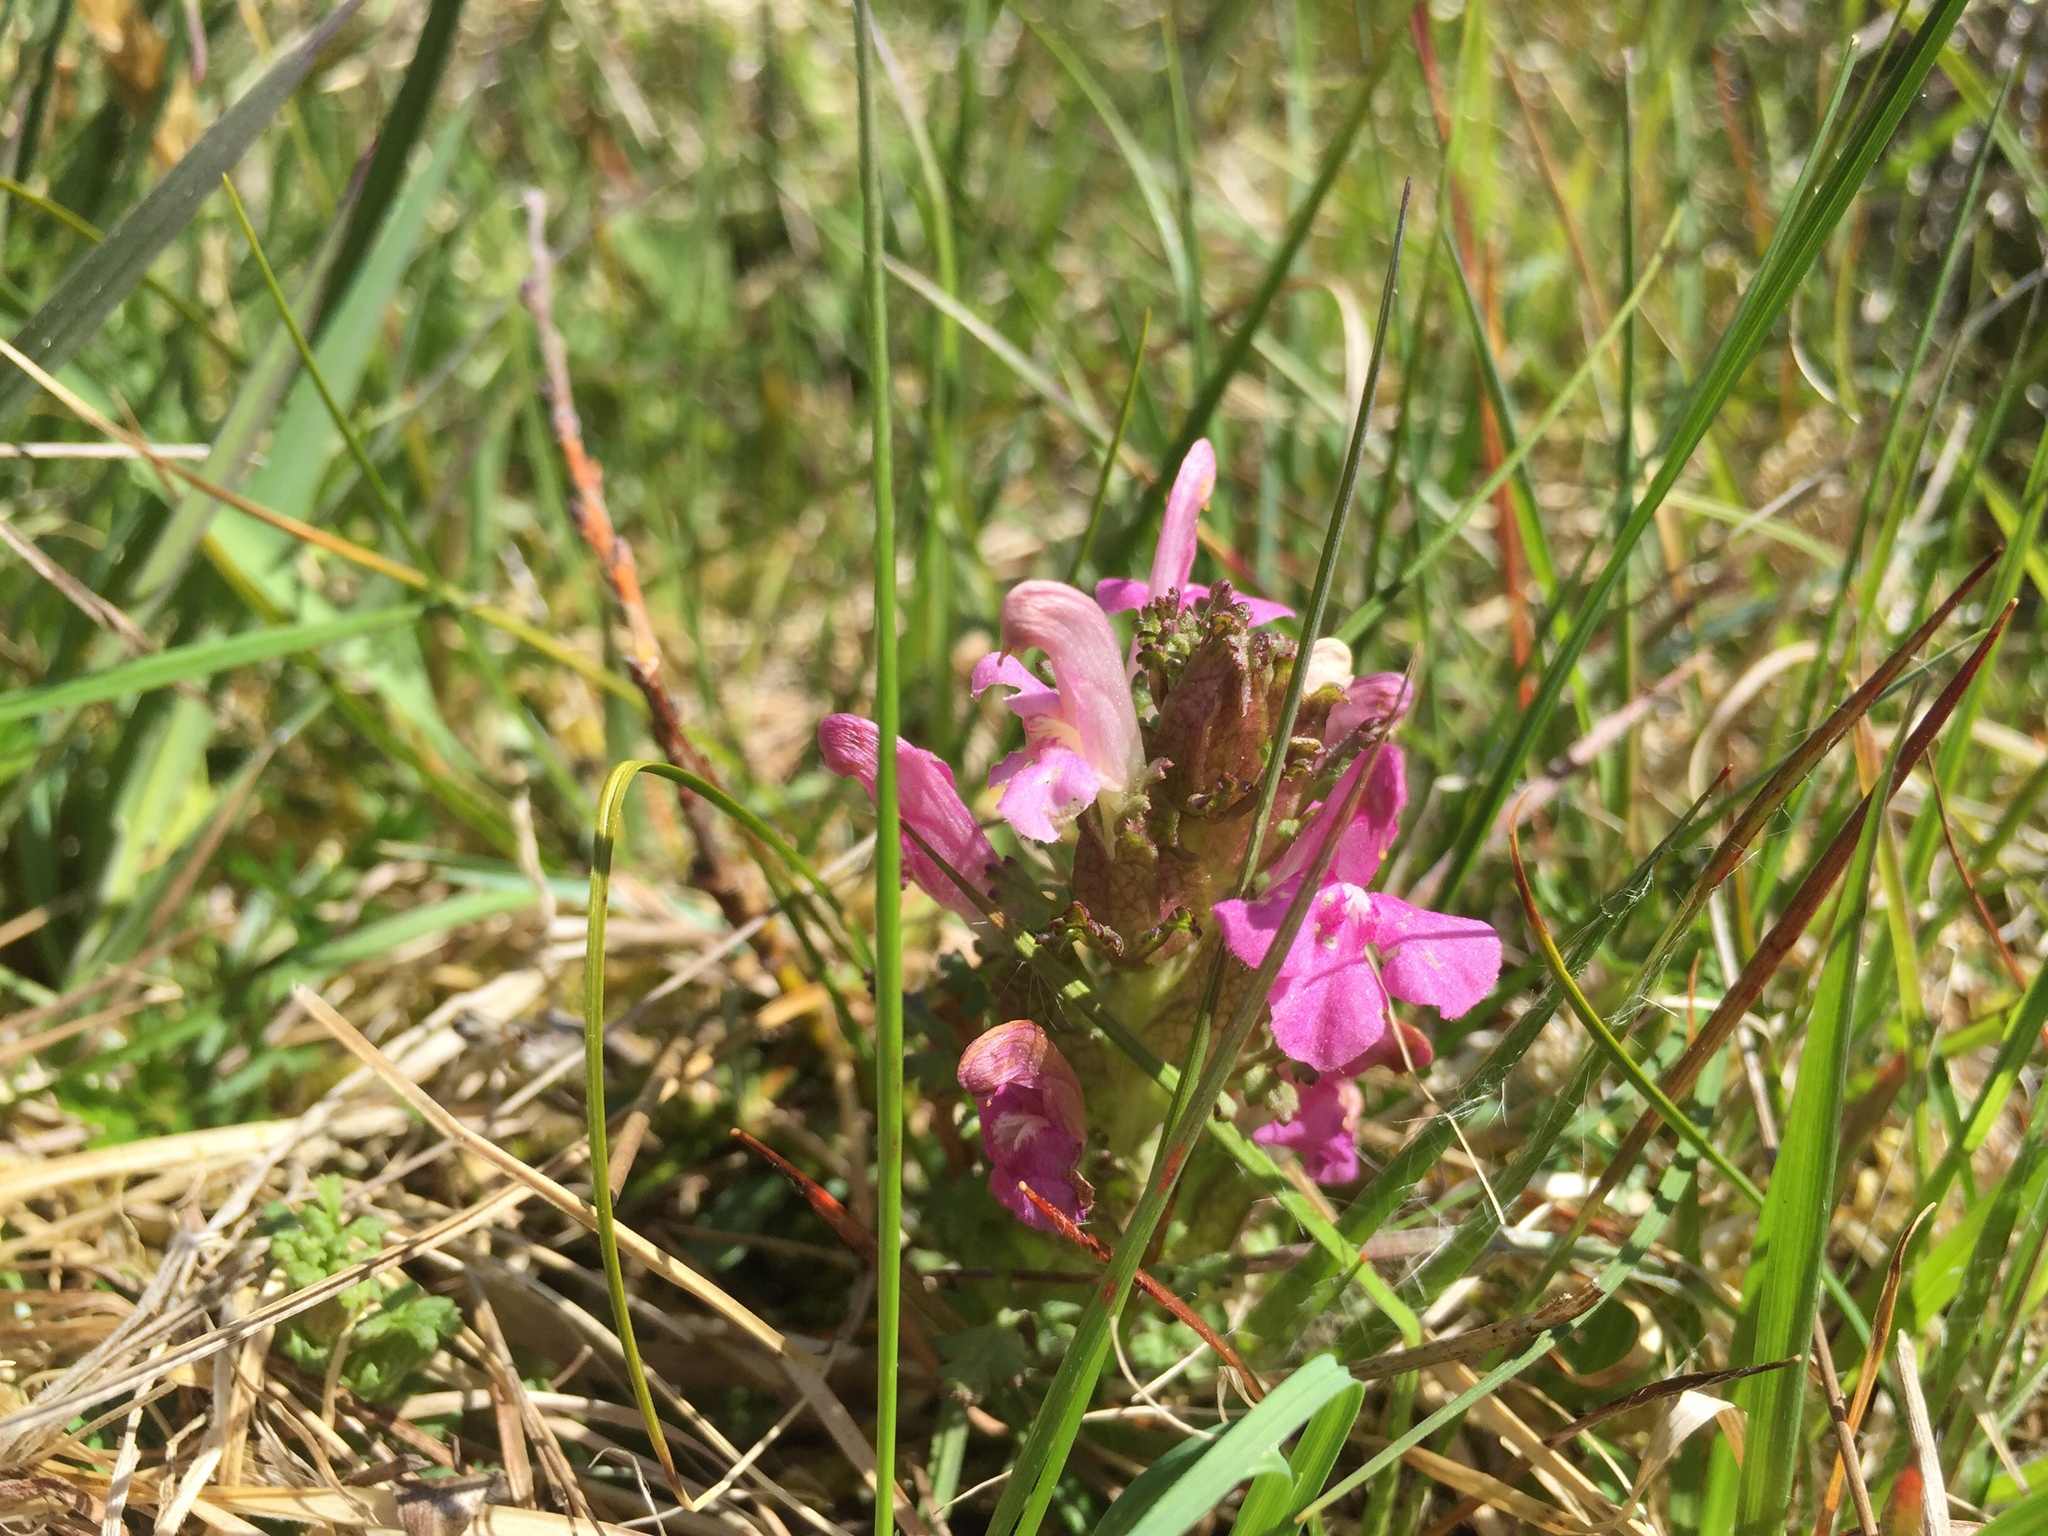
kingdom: Plantae
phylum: Tracheophyta
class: Magnoliopsida
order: Lamiales
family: Orobanchaceae
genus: Pedicularis
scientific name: Pedicularis sylvatica
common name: Lousewort
